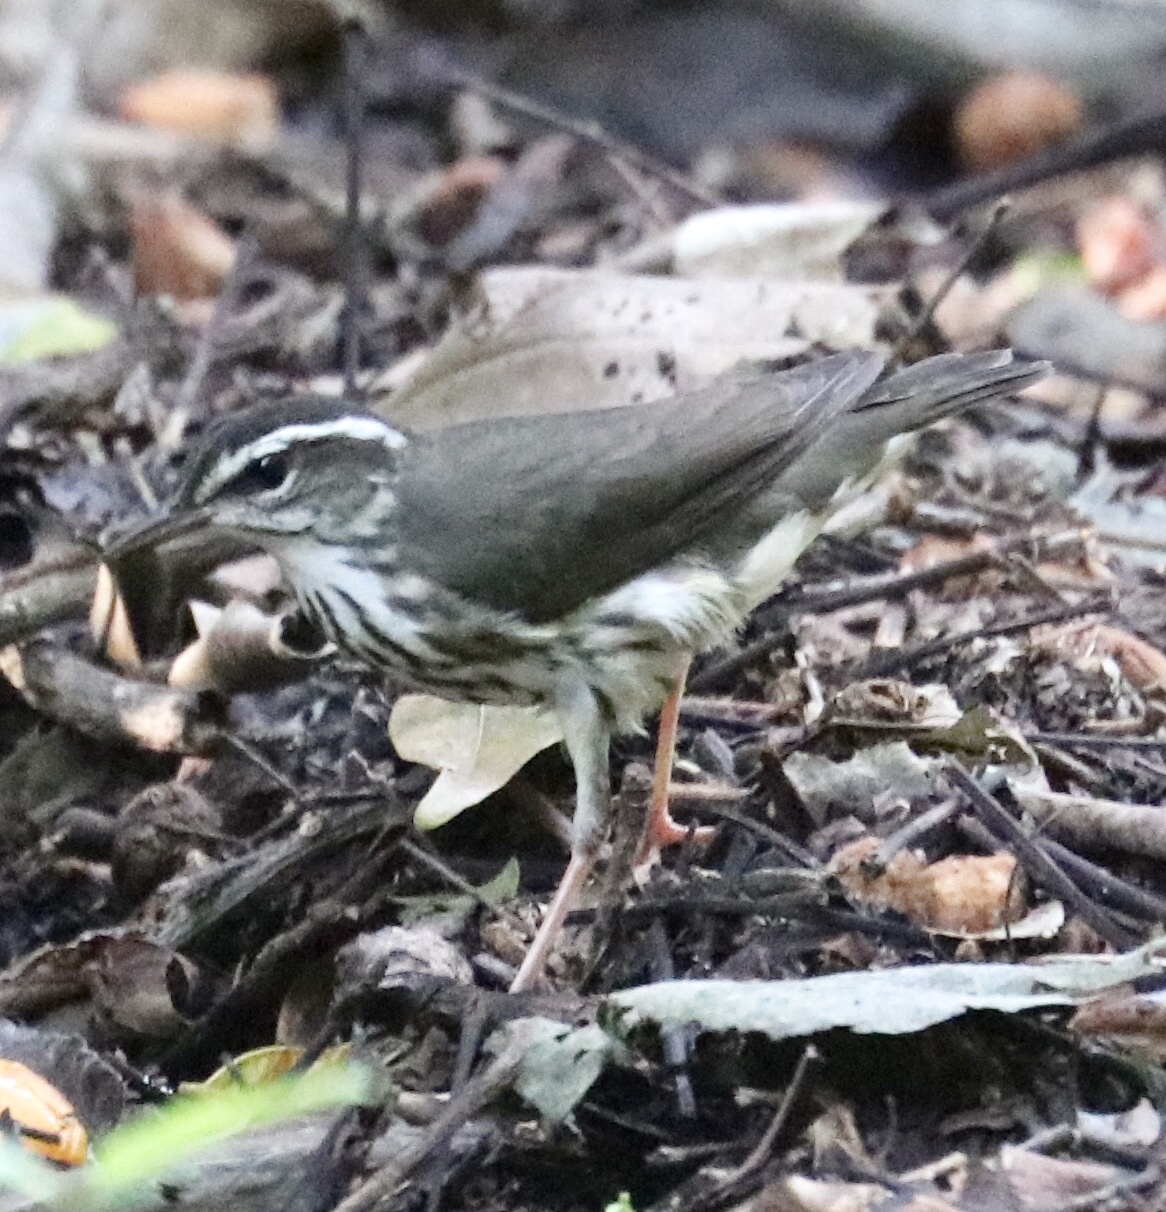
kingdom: Animalia
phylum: Chordata
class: Aves
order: Passeriformes
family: Parulidae
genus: Parkesia
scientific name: Parkesia motacilla
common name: Louisiana waterthrush
